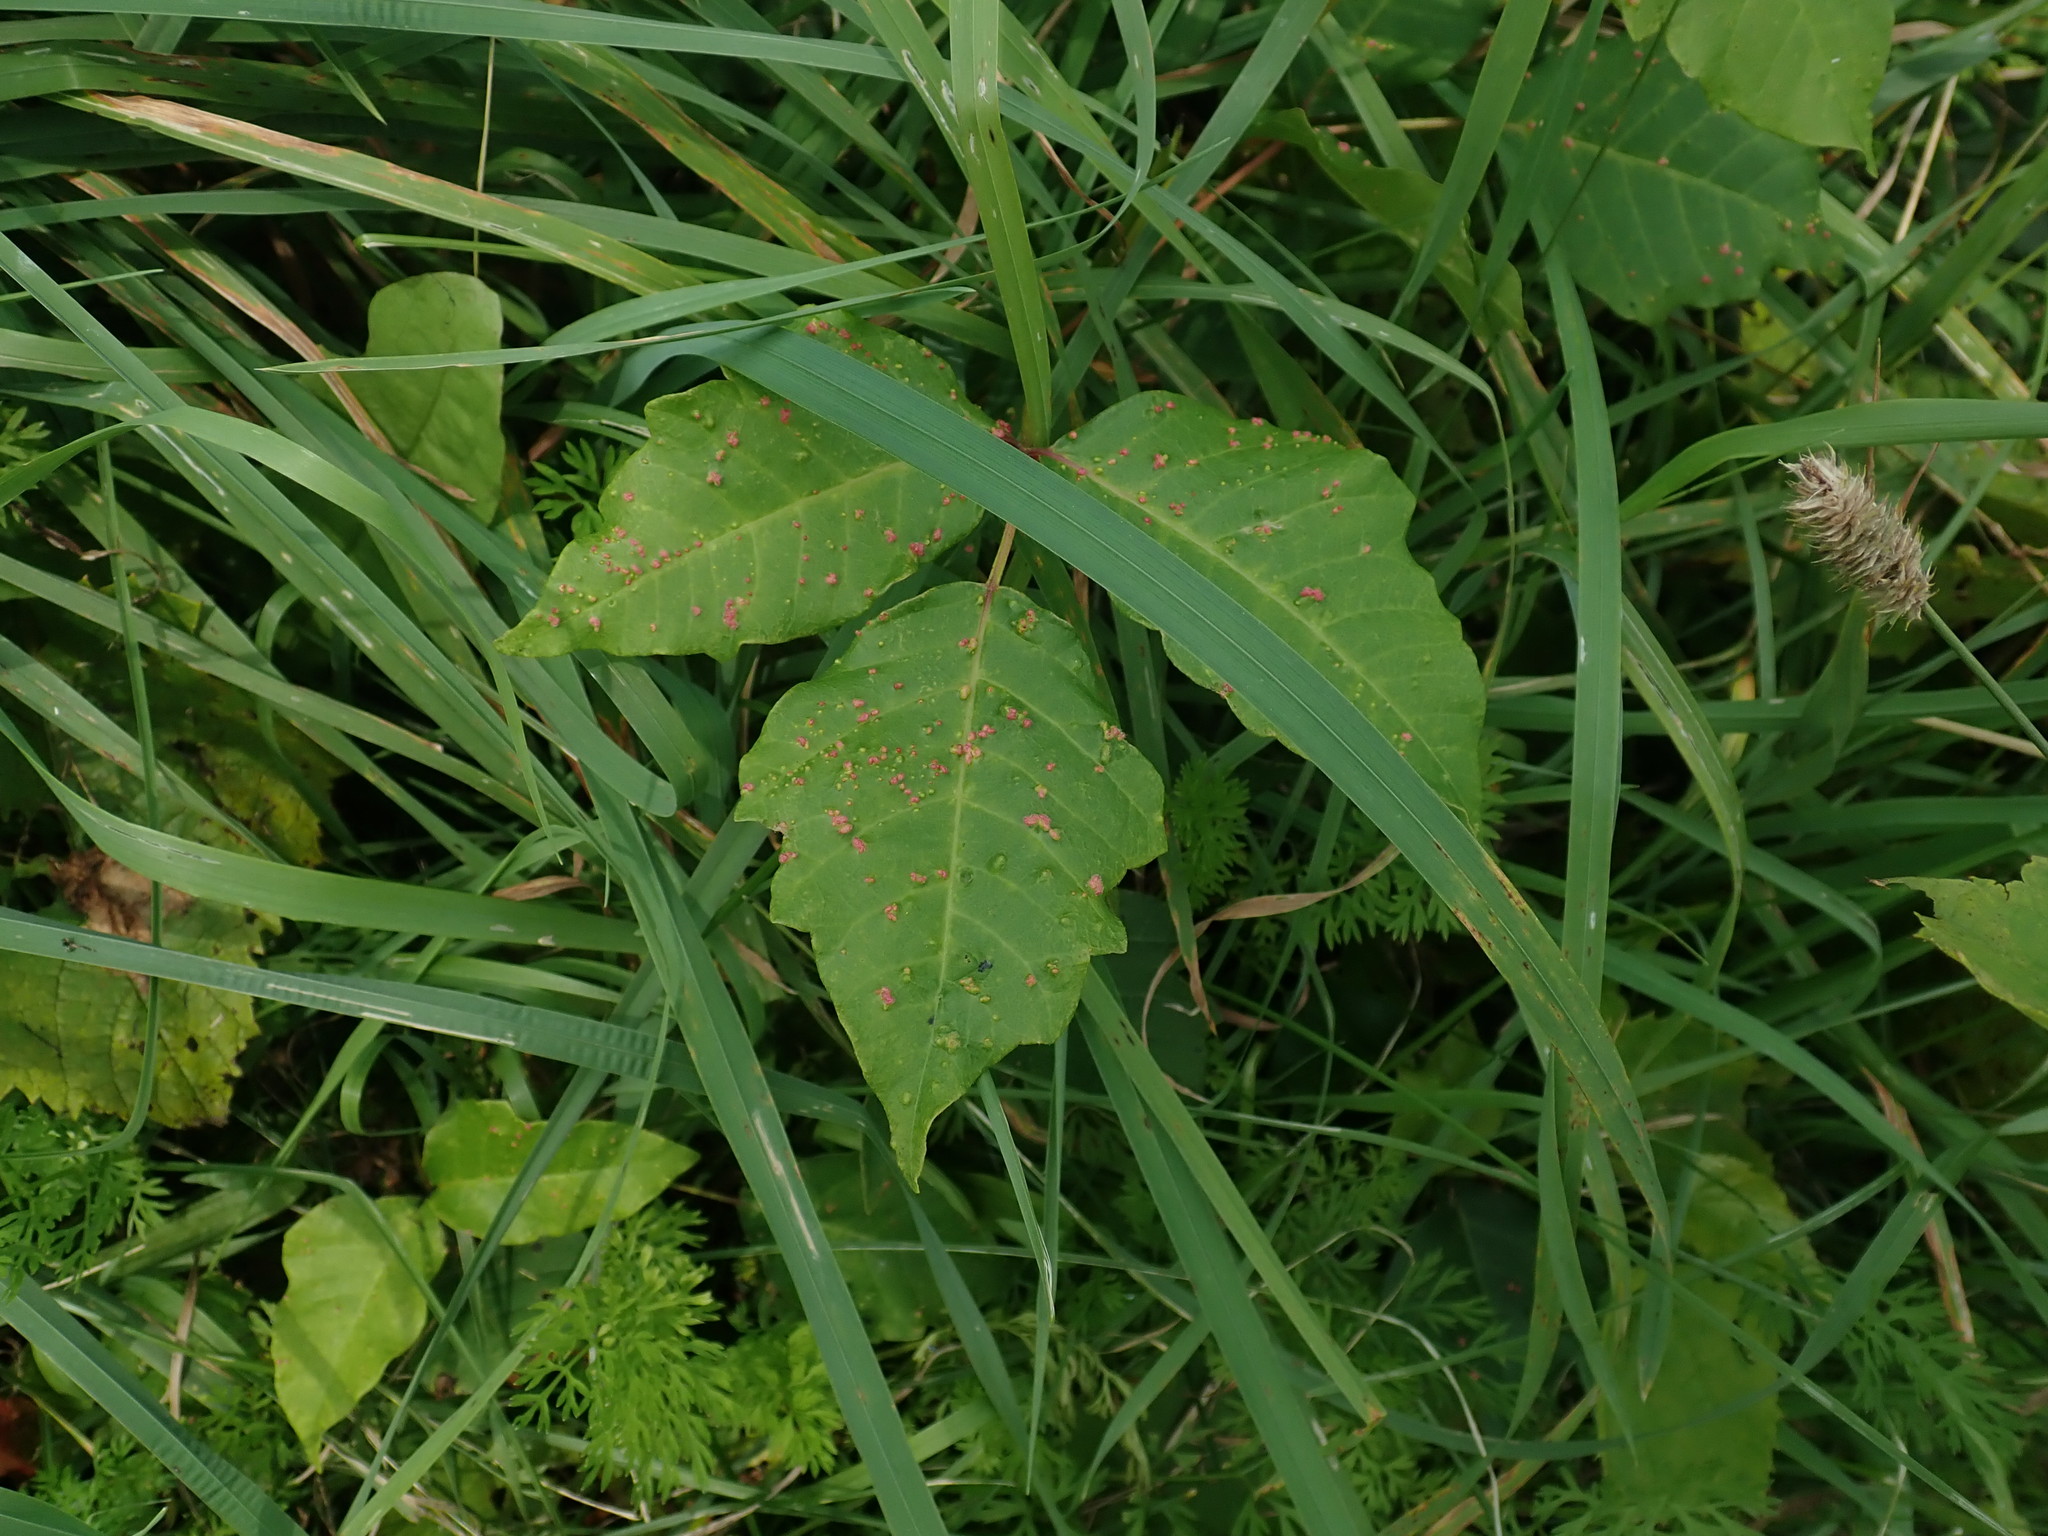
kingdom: Animalia
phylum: Arthropoda
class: Arachnida
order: Trombidiformes
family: Eriophyidae
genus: Aculops
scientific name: Aculops
